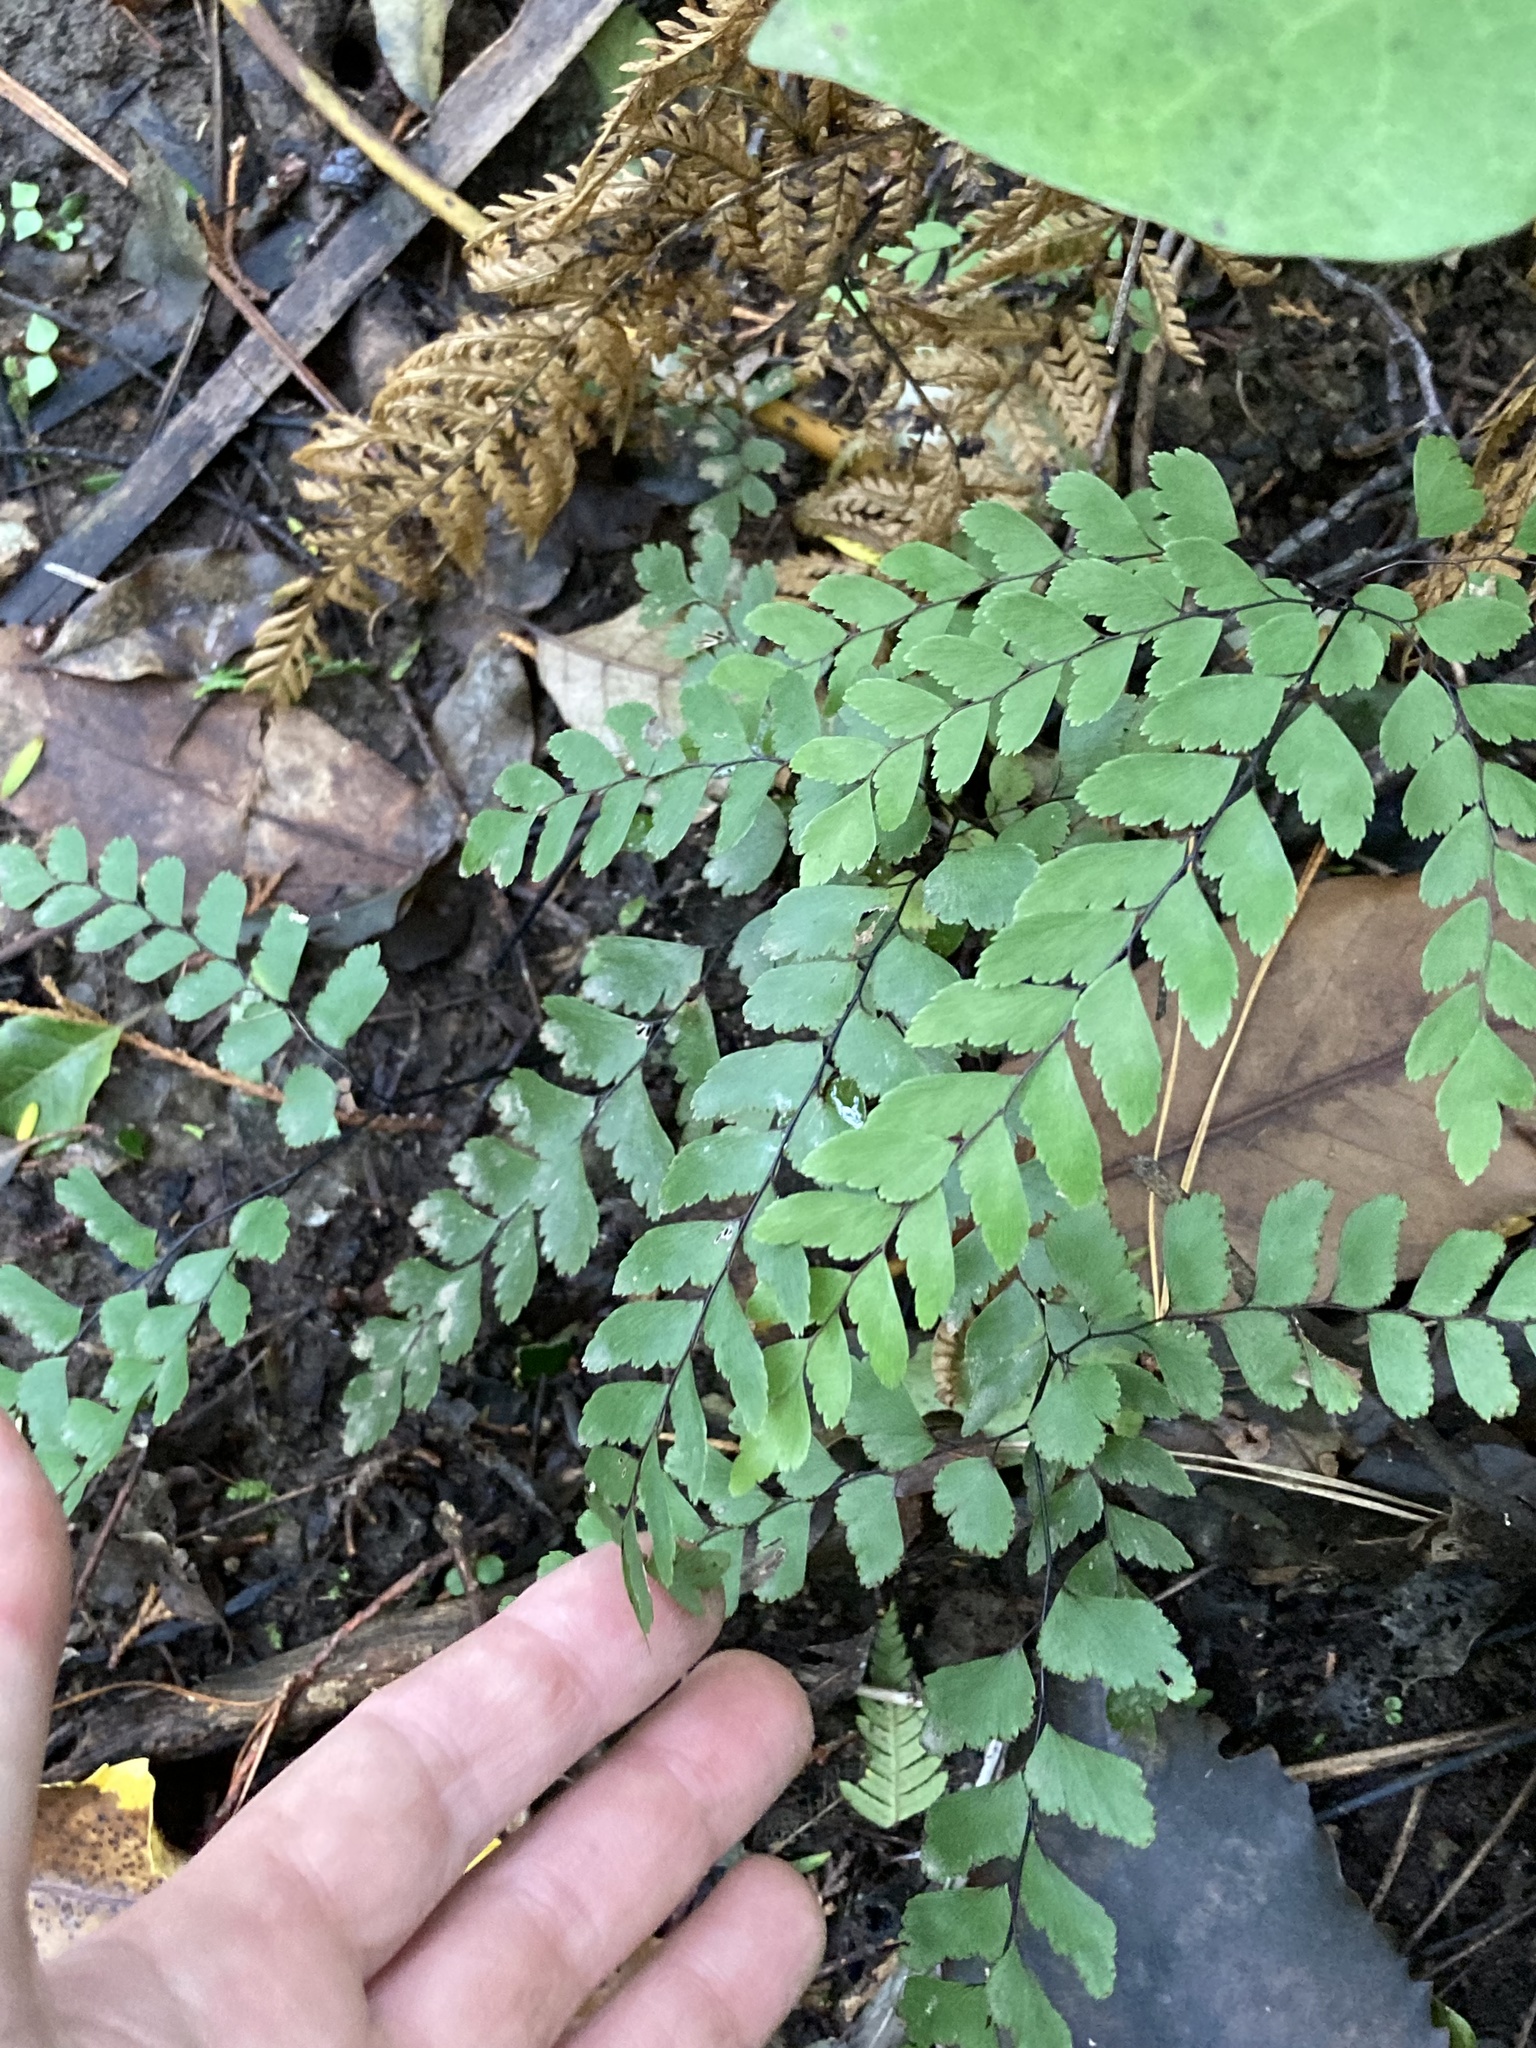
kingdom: Plantae
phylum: Tracheophyta
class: Polypodiopsida
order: Polypodiales
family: Pteridaceae
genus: Adiantum
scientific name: Adiantum cunninghamii
